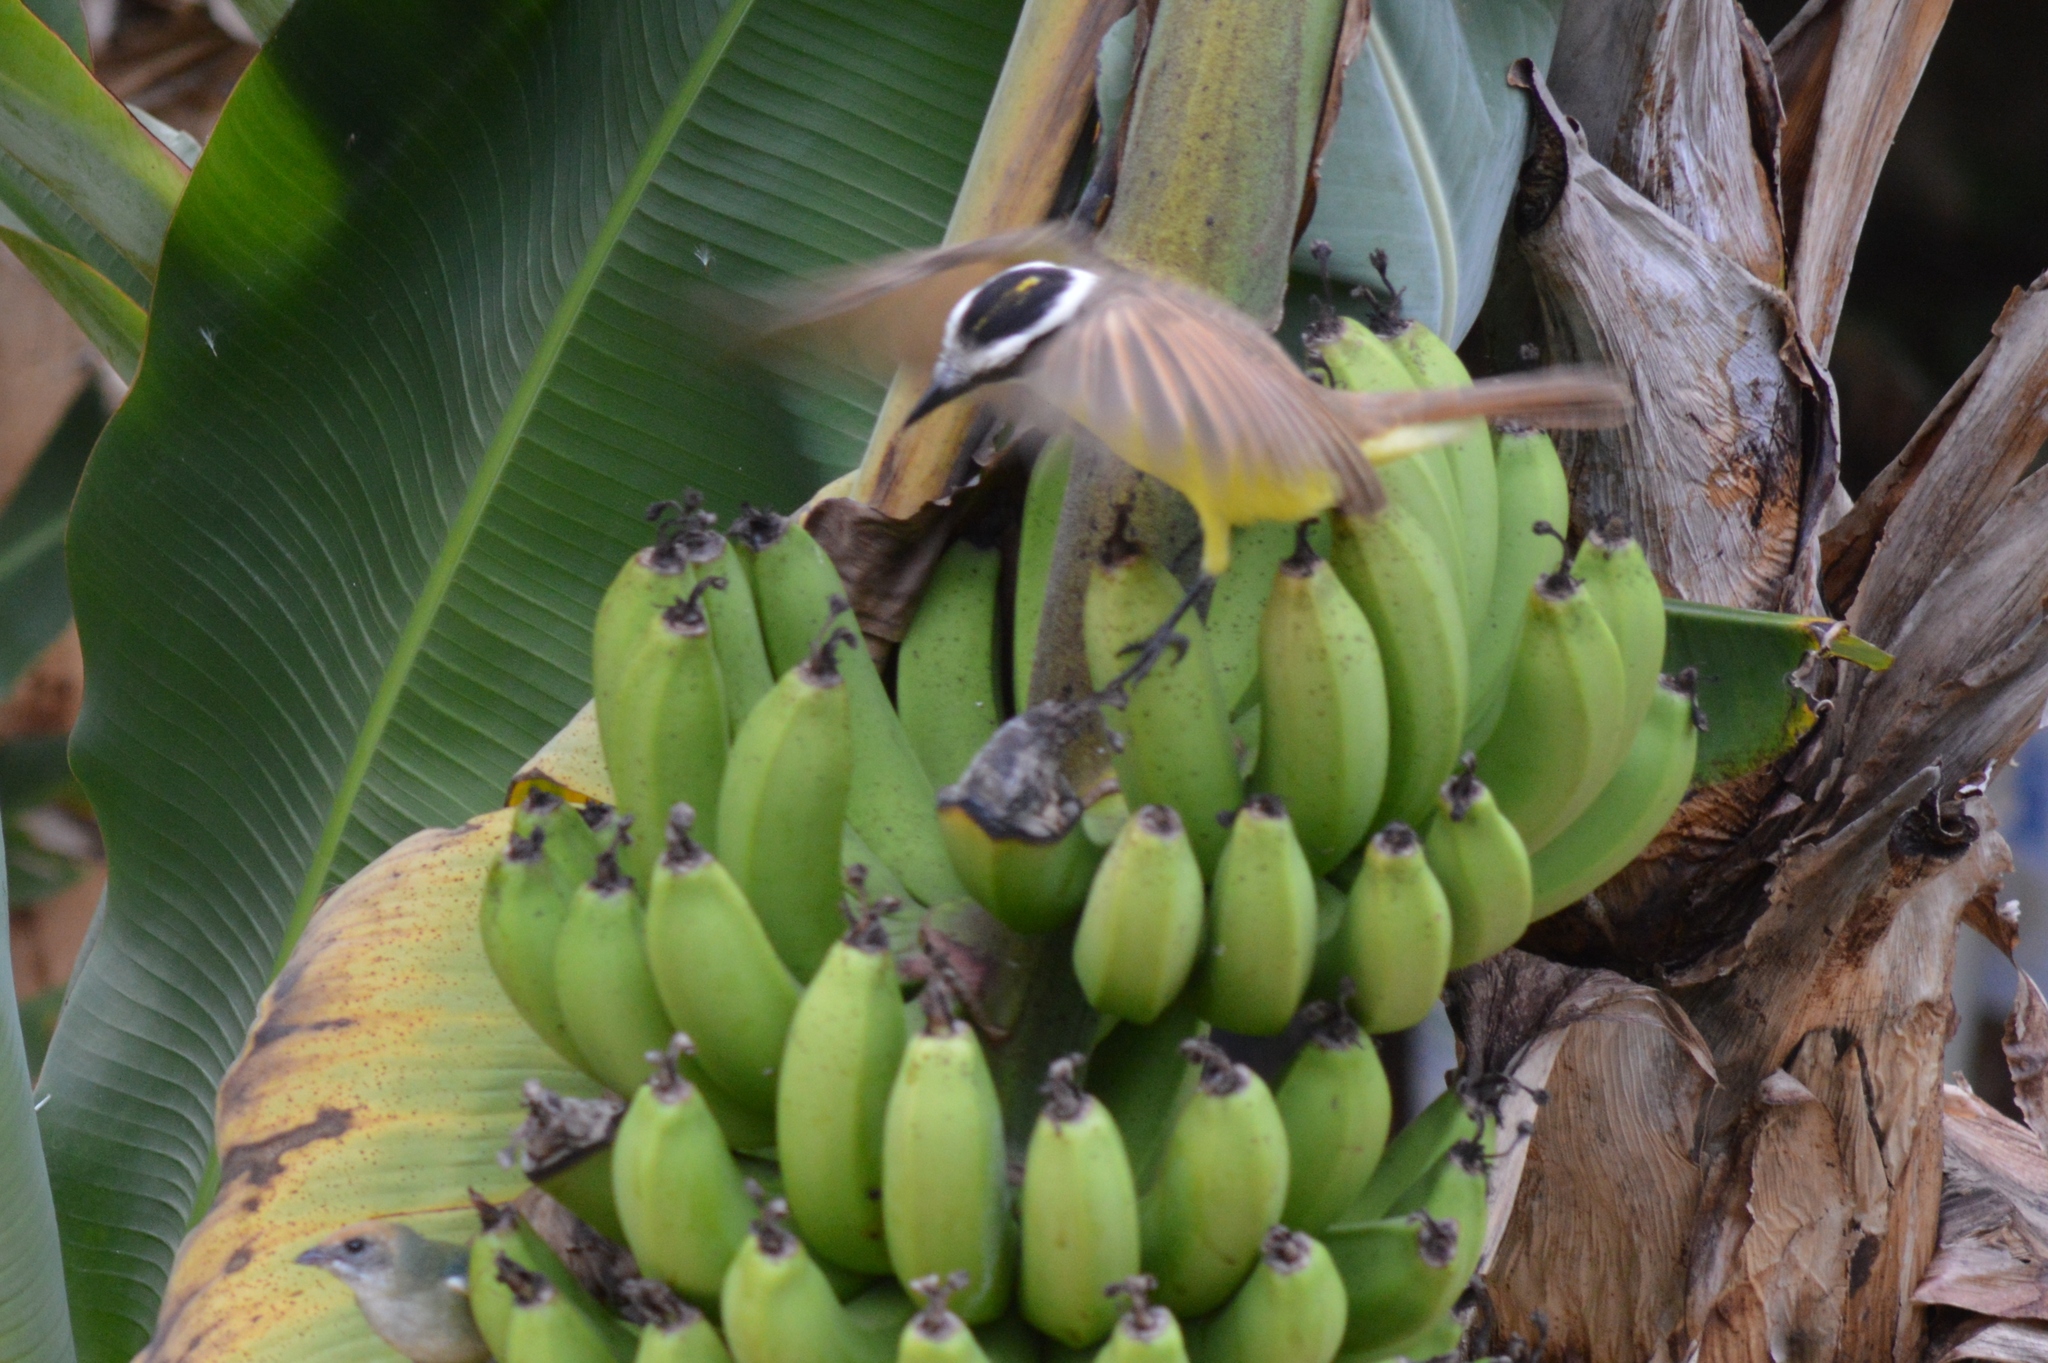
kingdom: Animalia
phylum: Chordata
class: Aves
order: Passeriformes
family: Tyrannidae
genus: Pitangus
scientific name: Pitangus sulphuratus
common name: Great kiskadee
